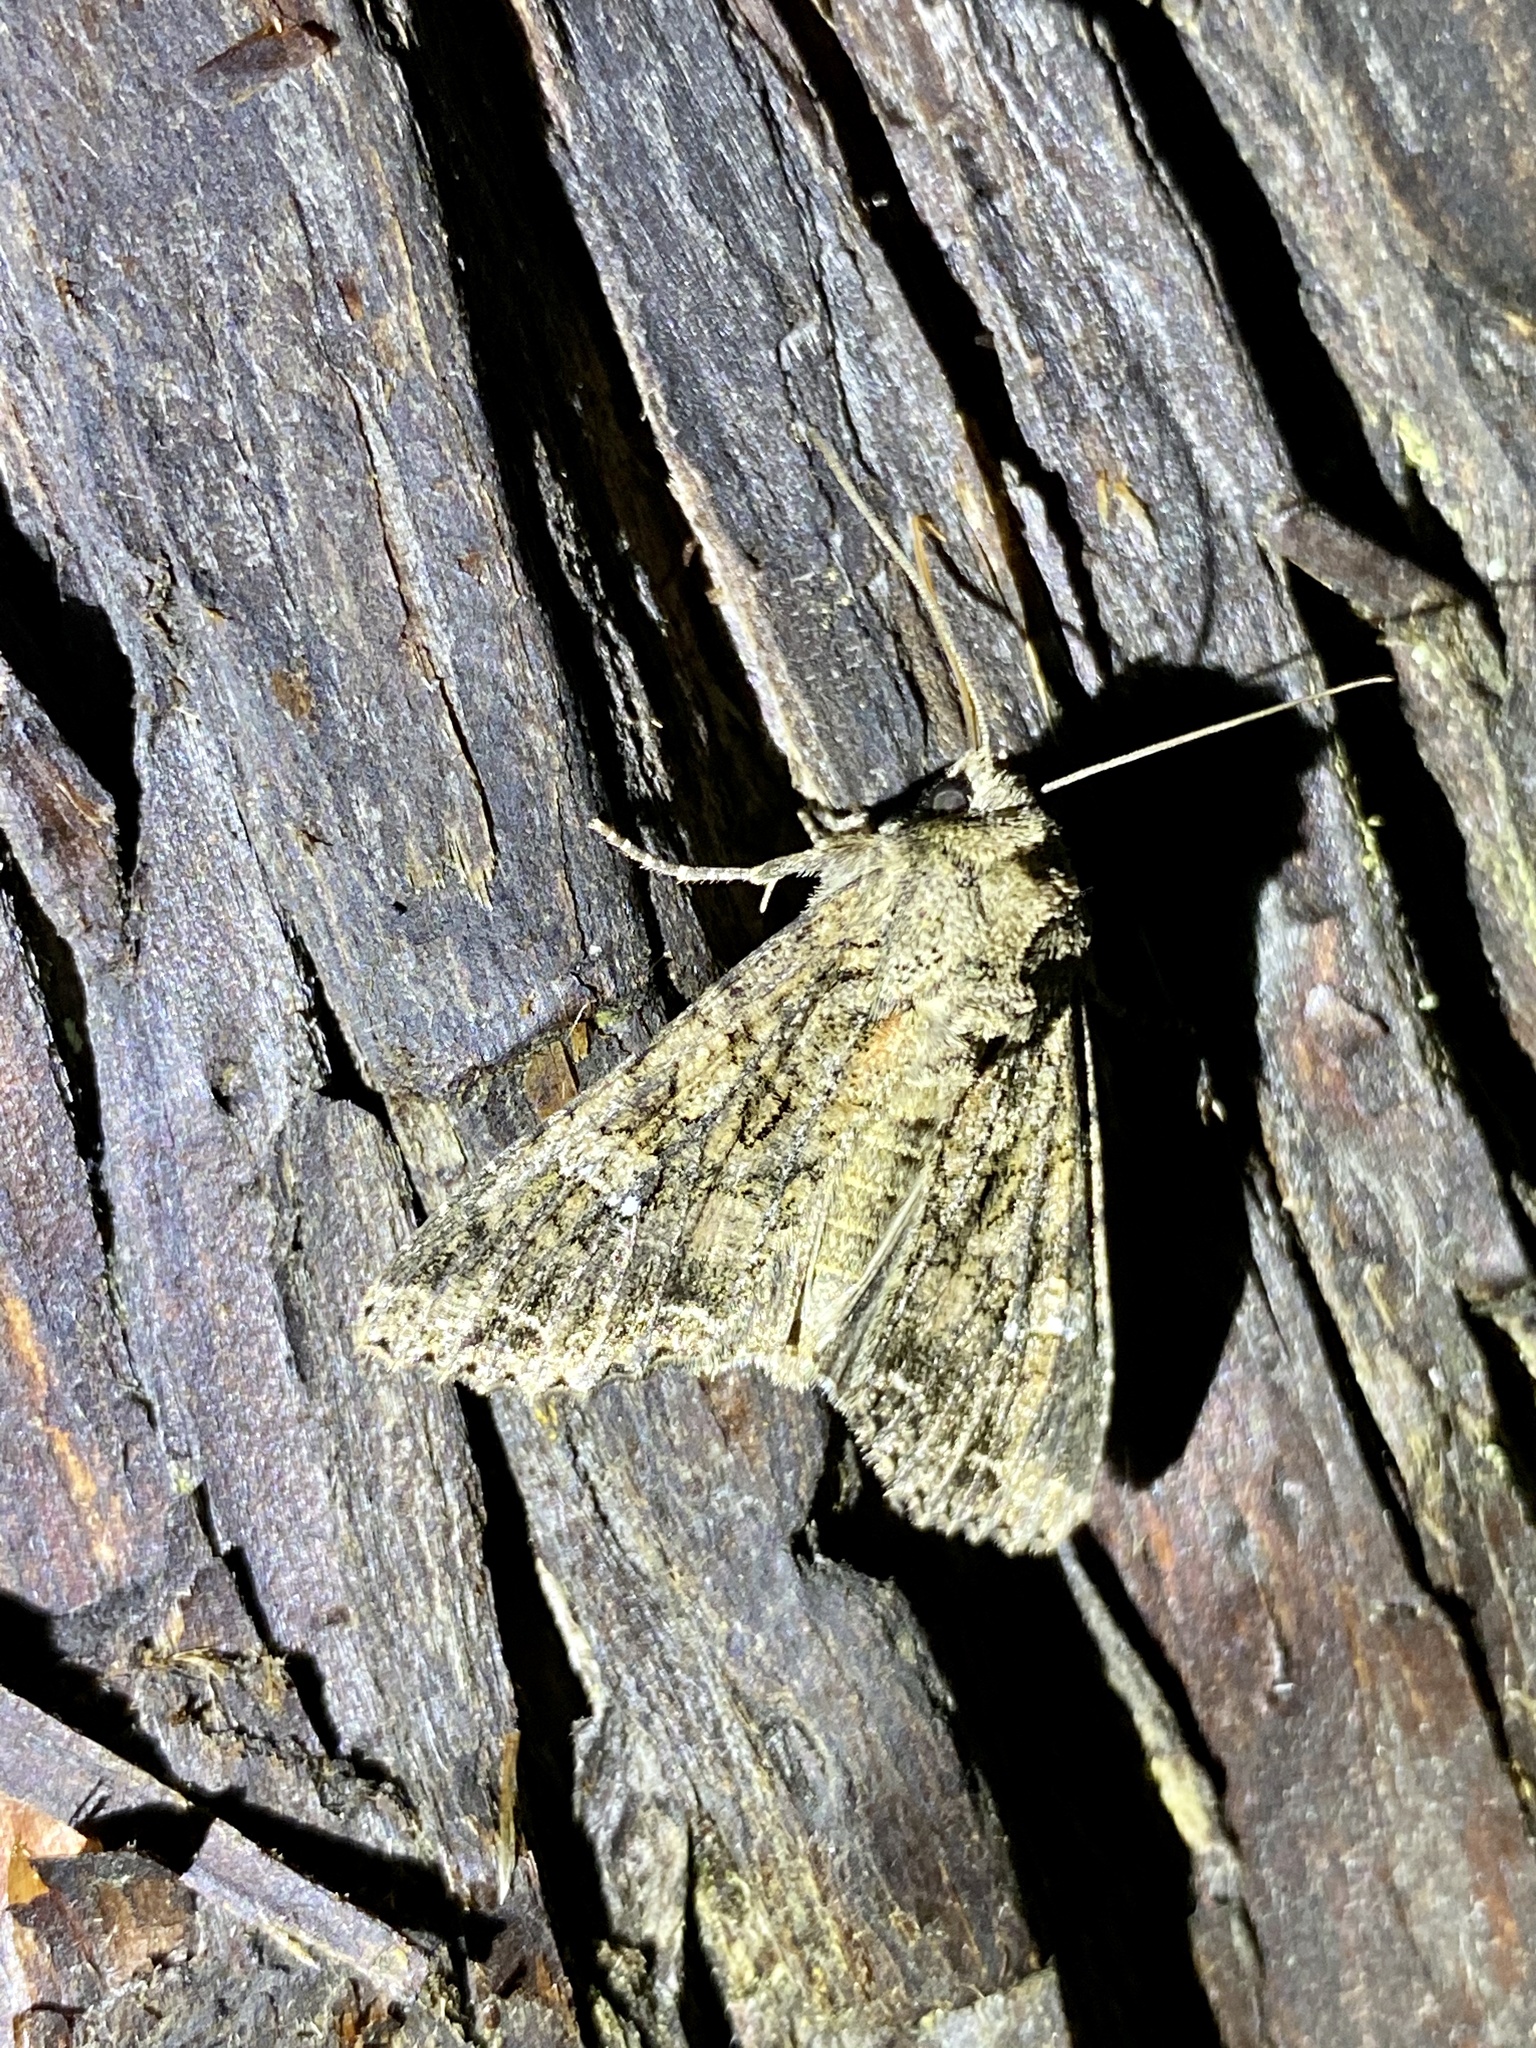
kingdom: Animalia
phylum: Arthropoda
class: Insecta
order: Lepidoptera
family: Noctuidae
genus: Mamestra
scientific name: Mamestra brassicae
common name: Cabbage moth
